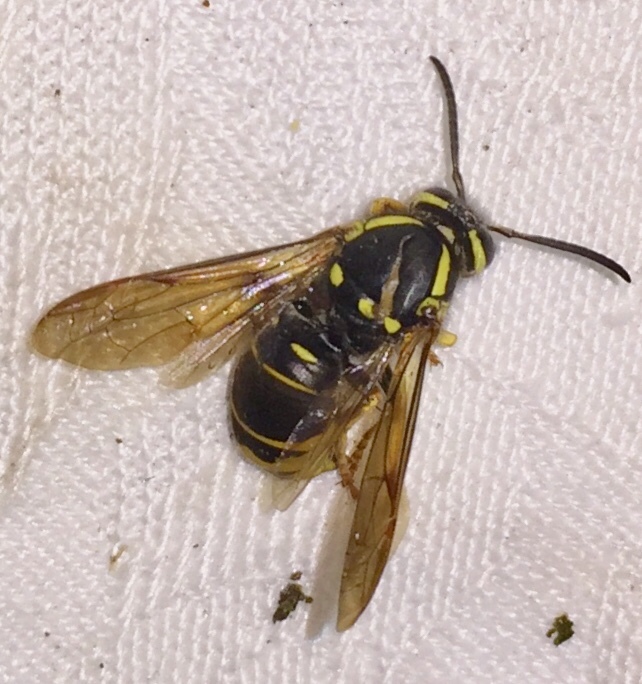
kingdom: Animalia
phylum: Arthropoda
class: Insecta
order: Hymenoptera
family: Vespidae
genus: Vespula
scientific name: Vespula vidua
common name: Widow yellowjacket
